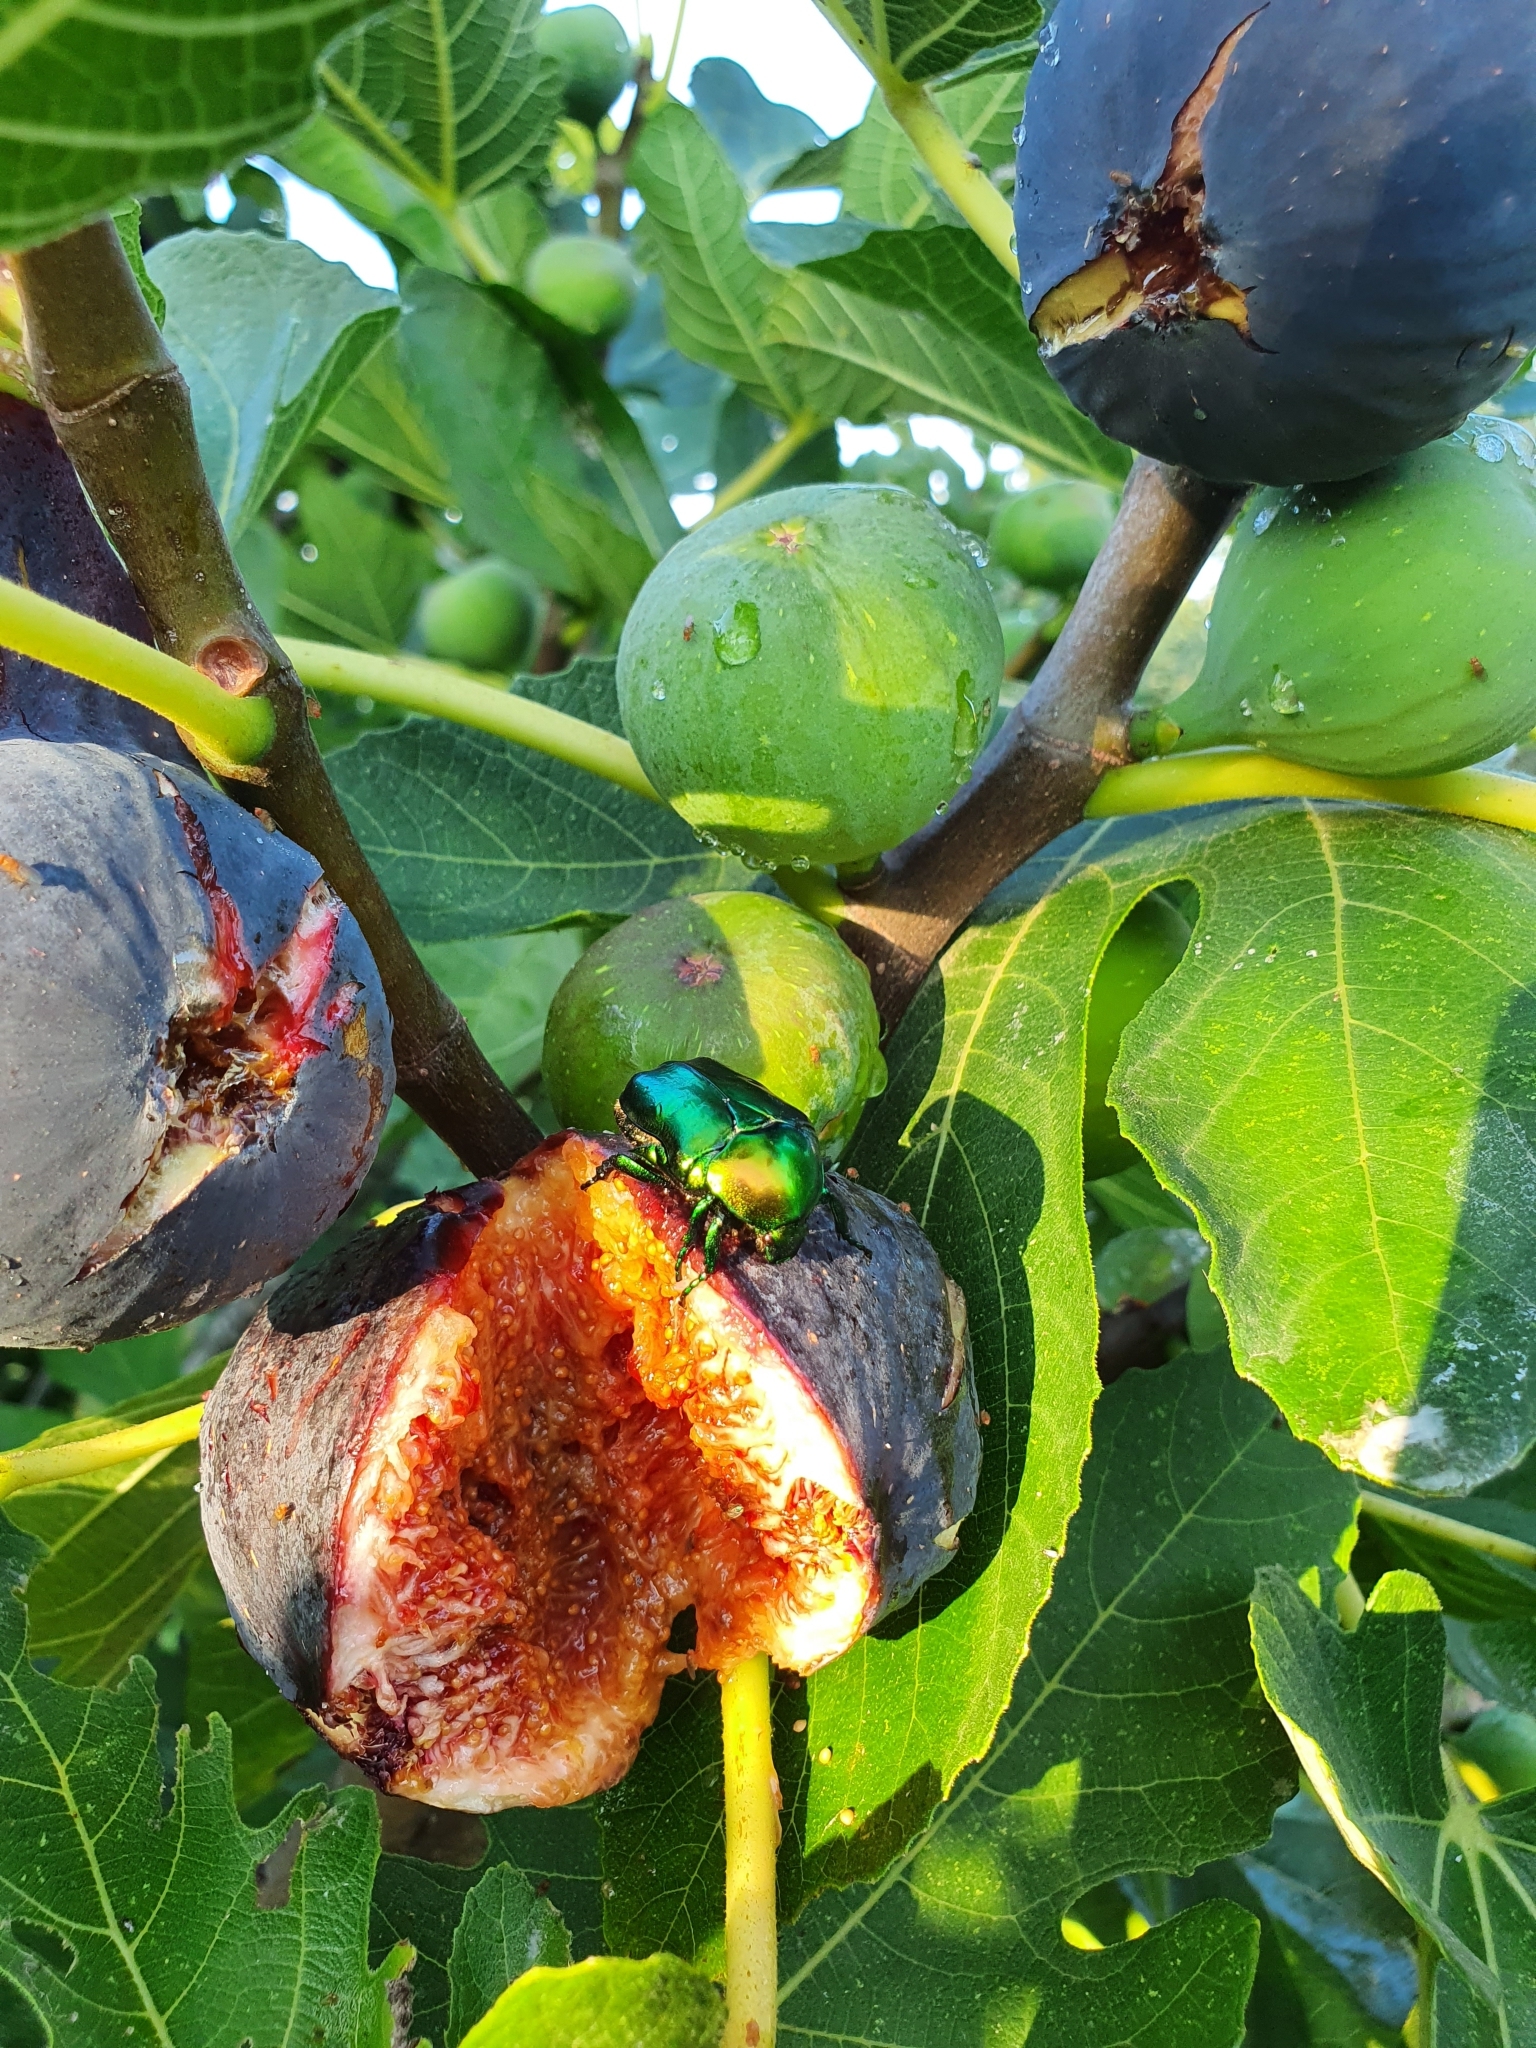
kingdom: Animalia
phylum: Arthropoda
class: Insecta
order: Coleoptera
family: Scarabaeidae
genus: Protaetia
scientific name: Protaetia speciosissima
